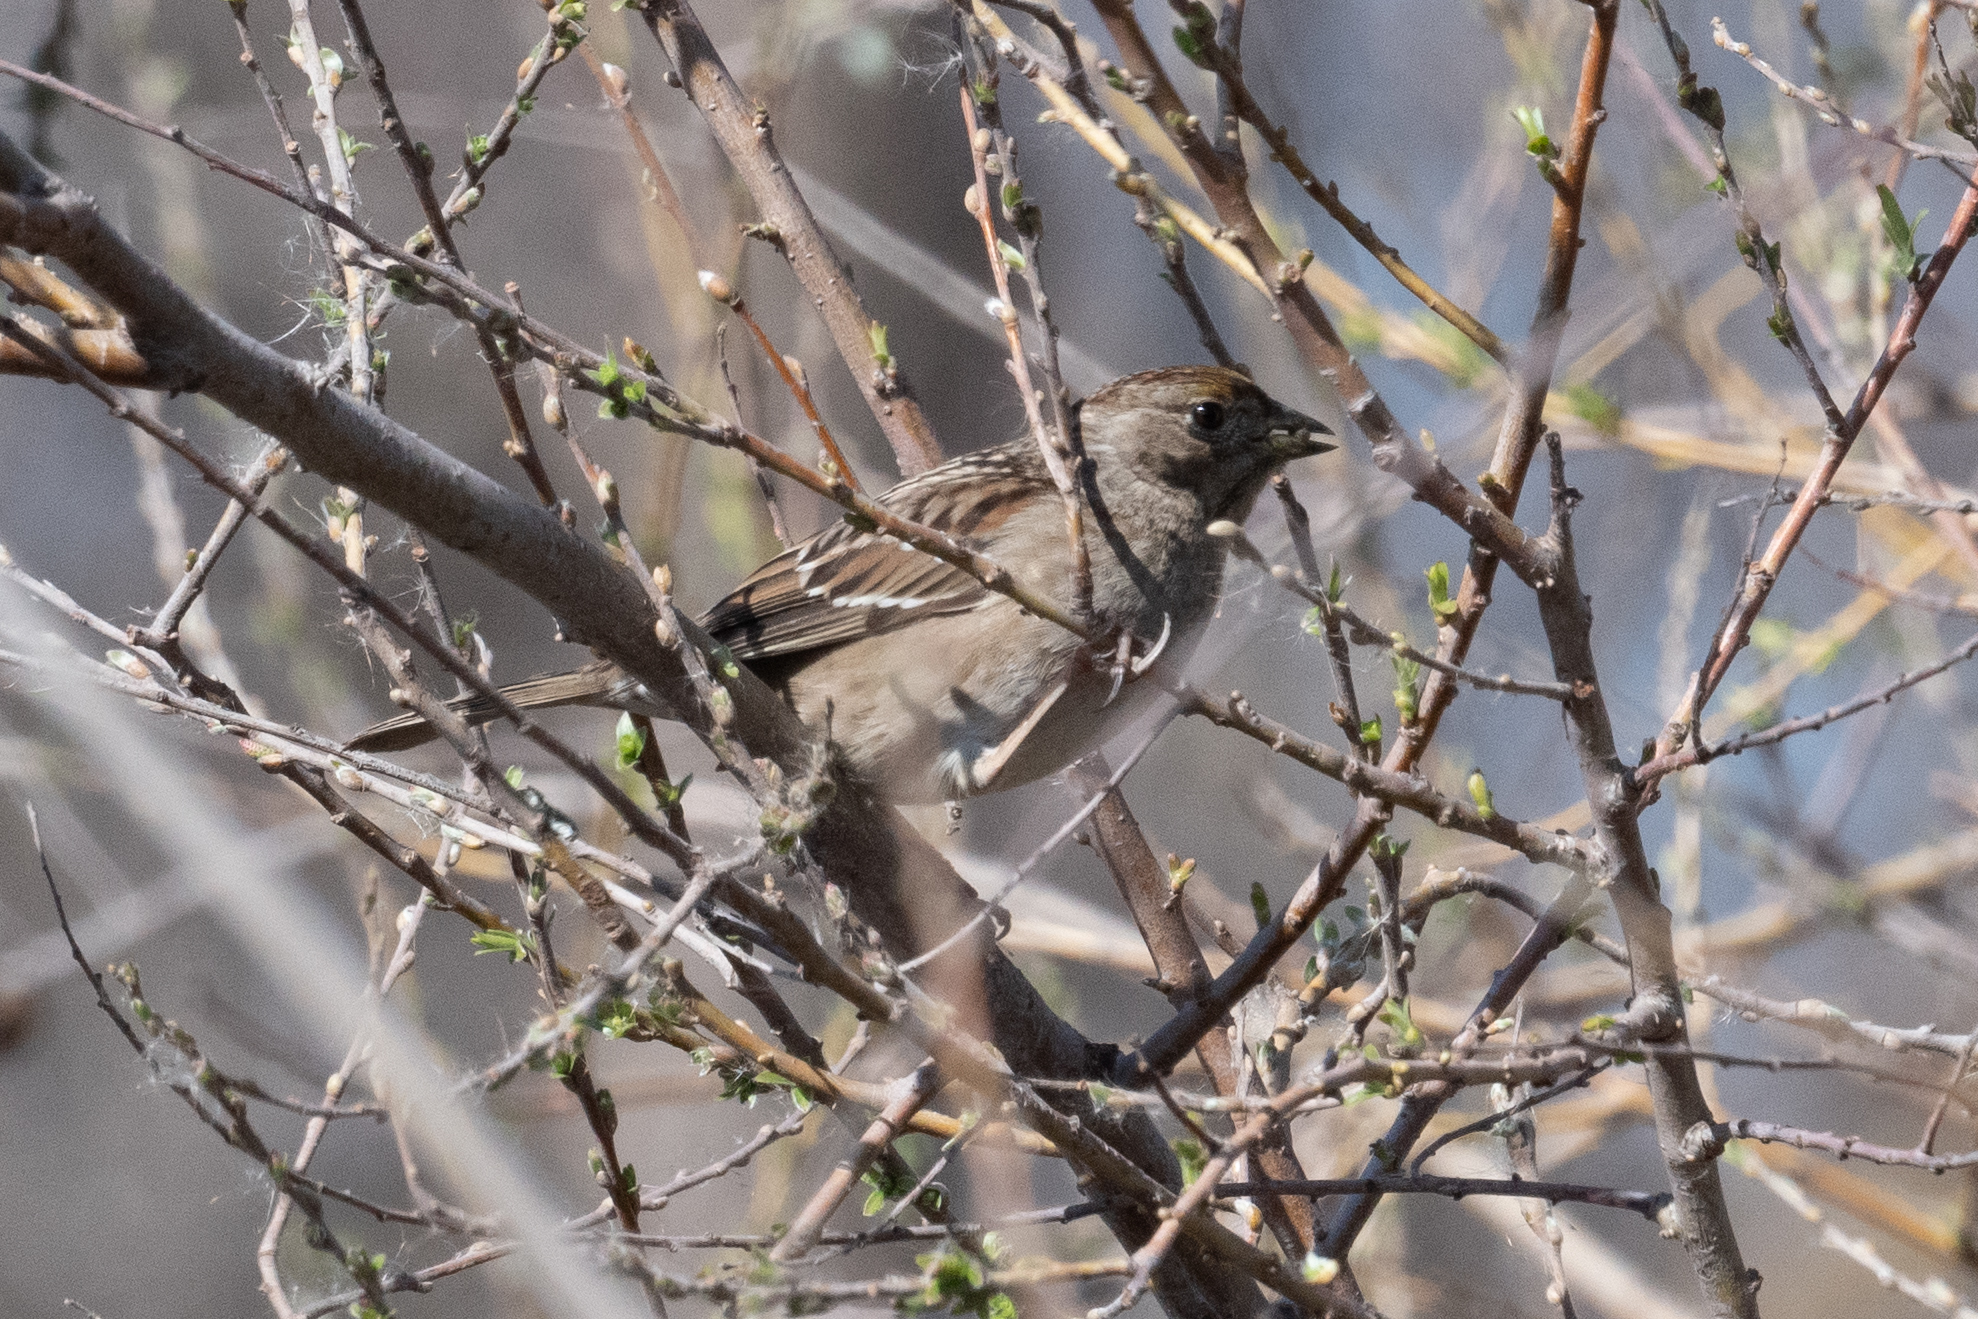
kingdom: Animalia
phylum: Chordata
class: Aves
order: Passeriformes
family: Passerellidae
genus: Zonotrichia
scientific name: Zonotrichia atricapilla
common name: Golden-crowned sparrow
